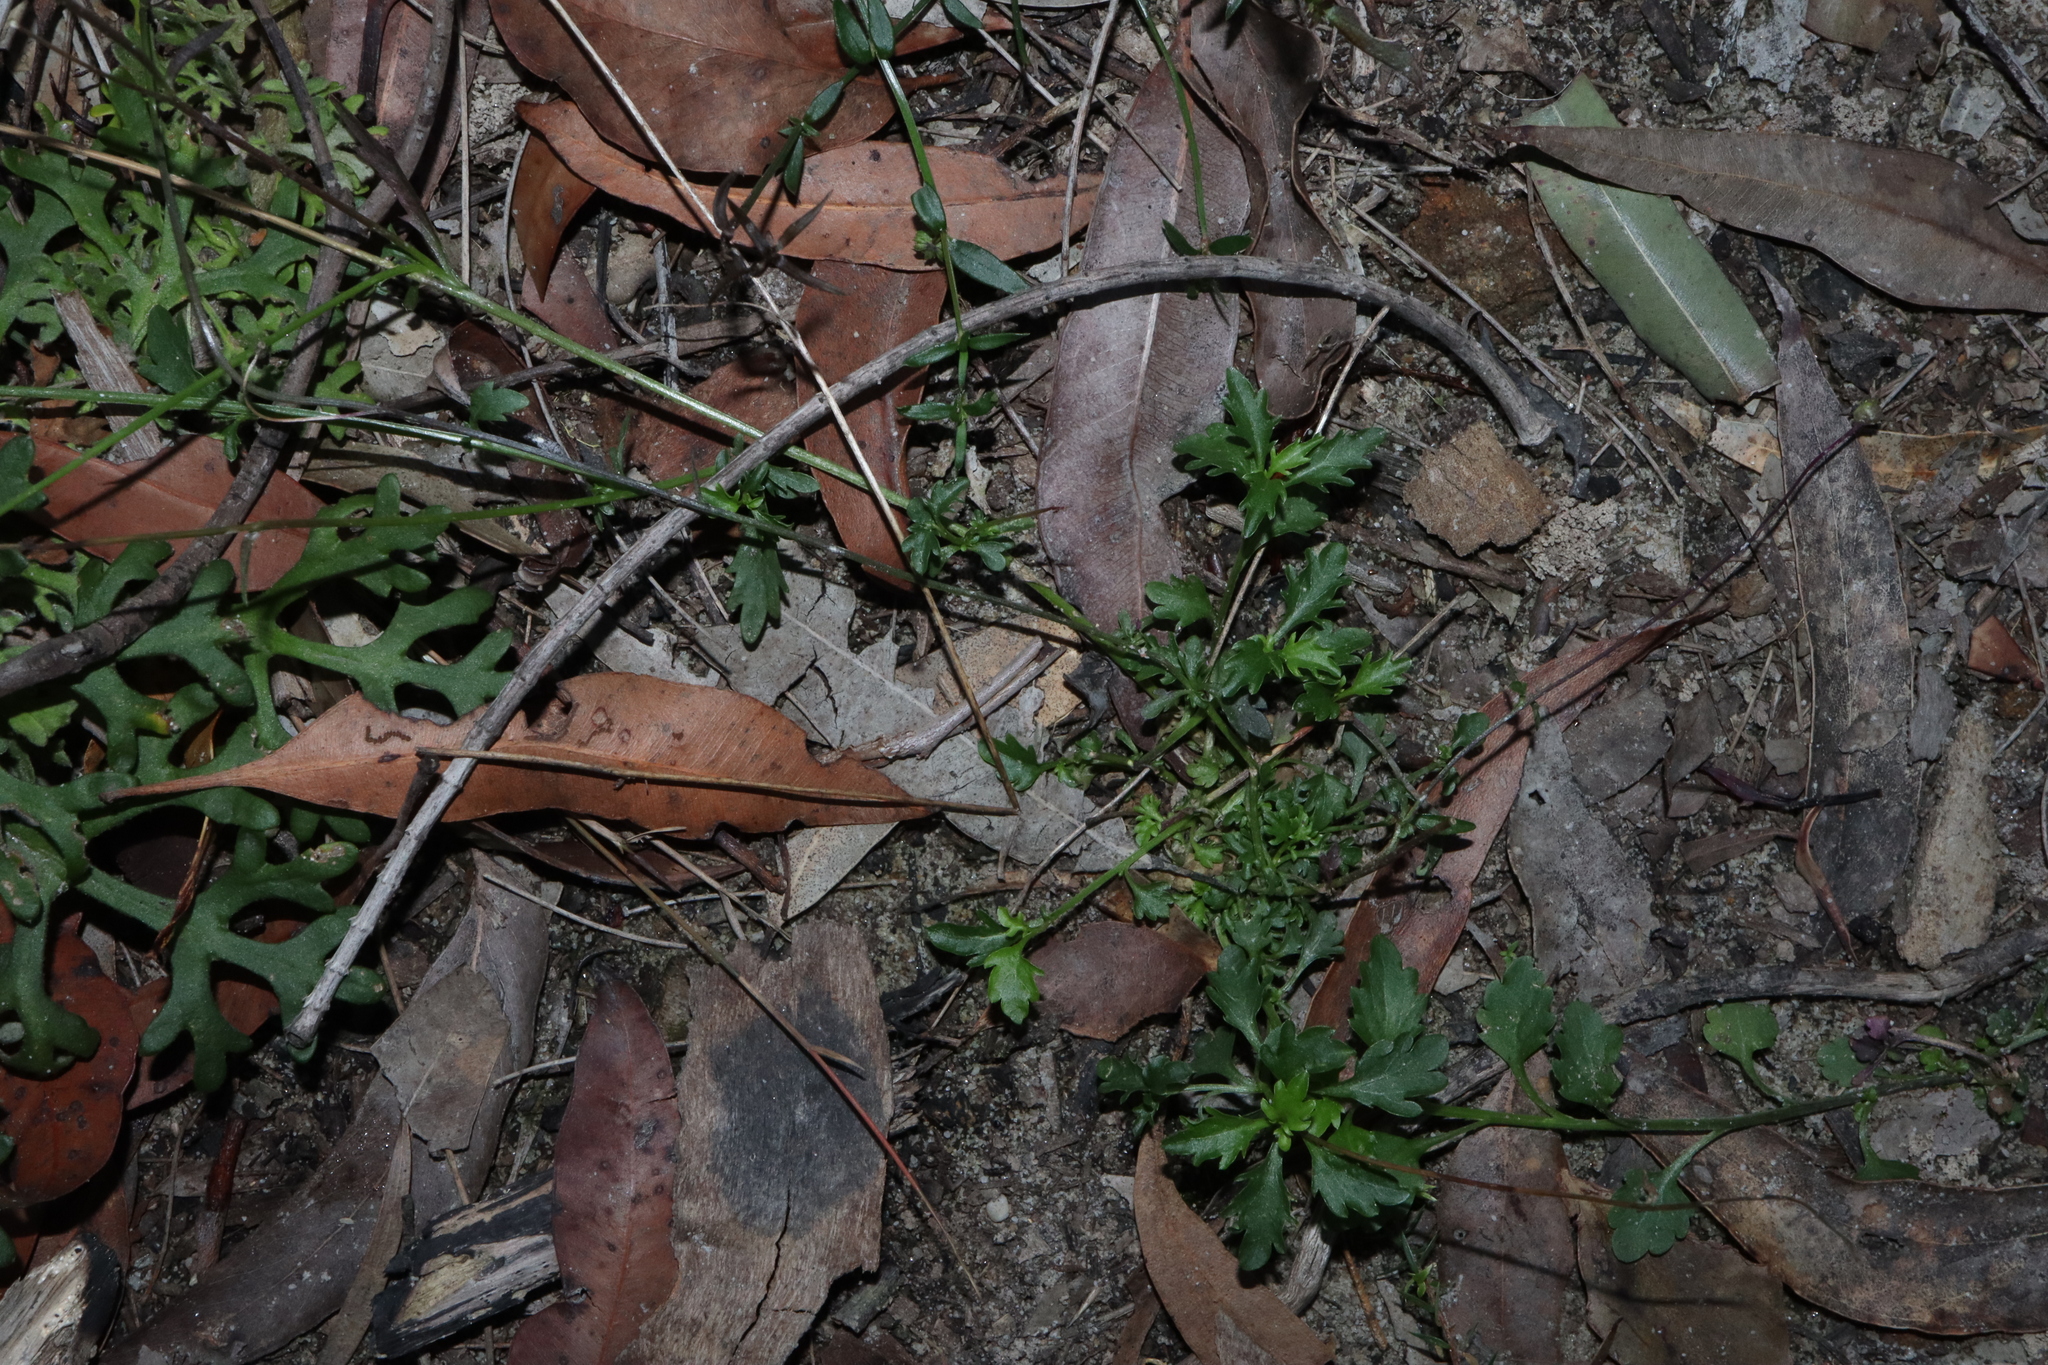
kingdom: Plantae
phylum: Tracheophyta
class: Magnoliopsida
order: Asterales
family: Campanulaceae
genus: Lobelia
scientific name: Lobelia andrewsii
